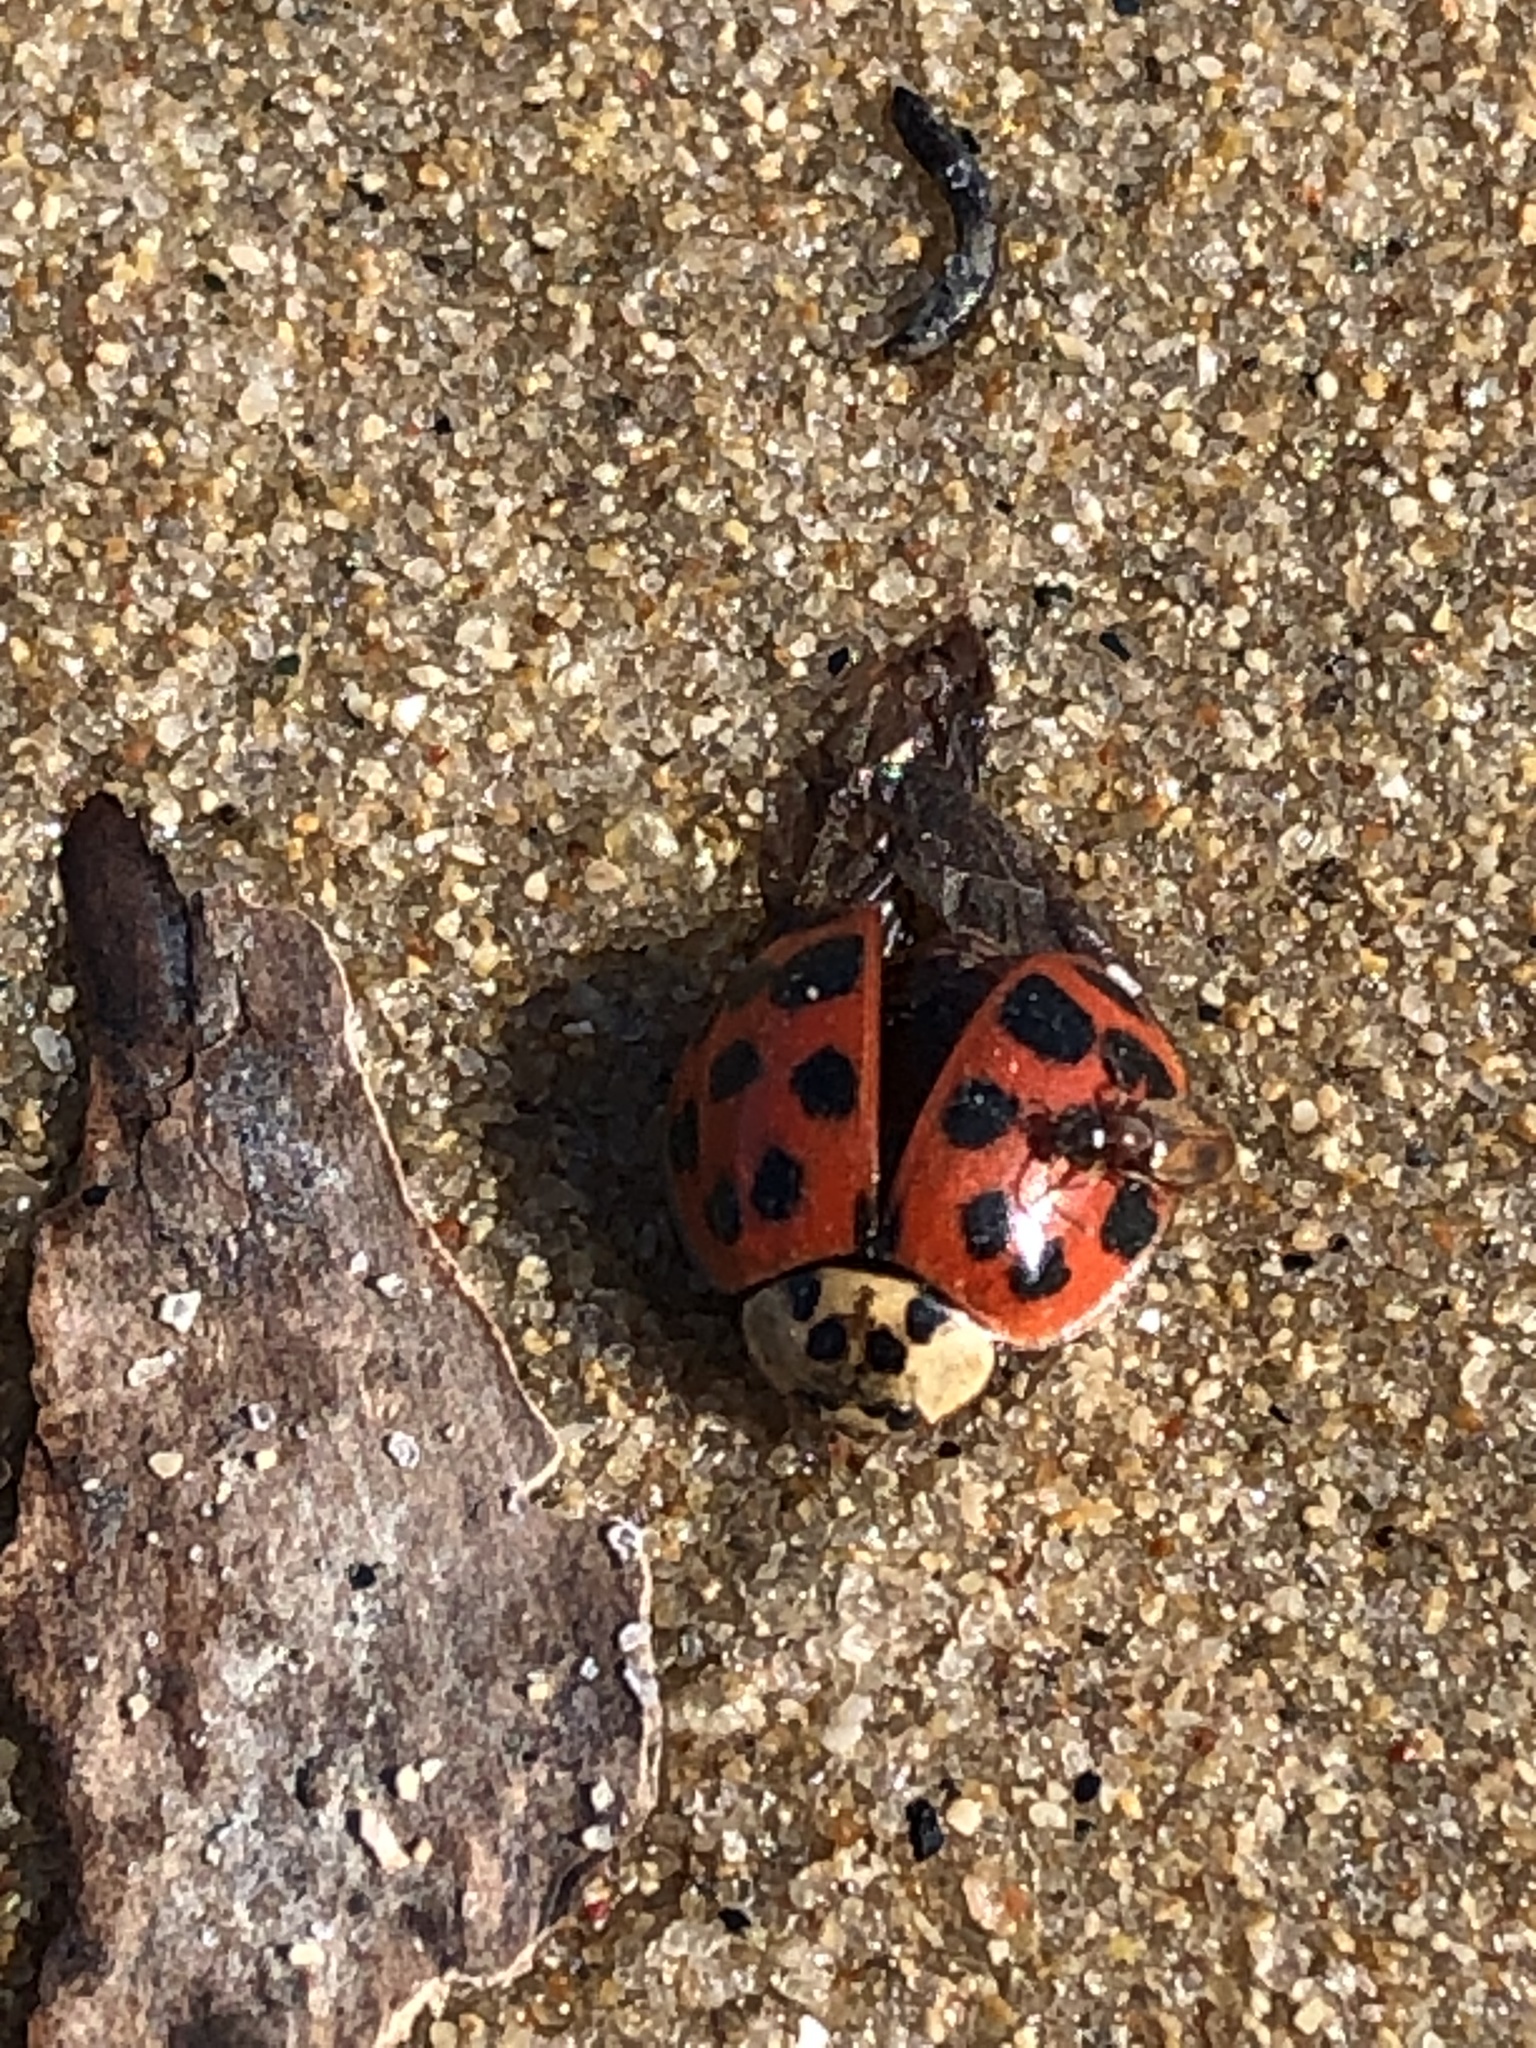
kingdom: Animalia
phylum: Arthropoda
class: Insecta
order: Coleoptera
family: Coccinellidae
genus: Harmonia
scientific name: Harmonia axyridis
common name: Harlequin ladybird
